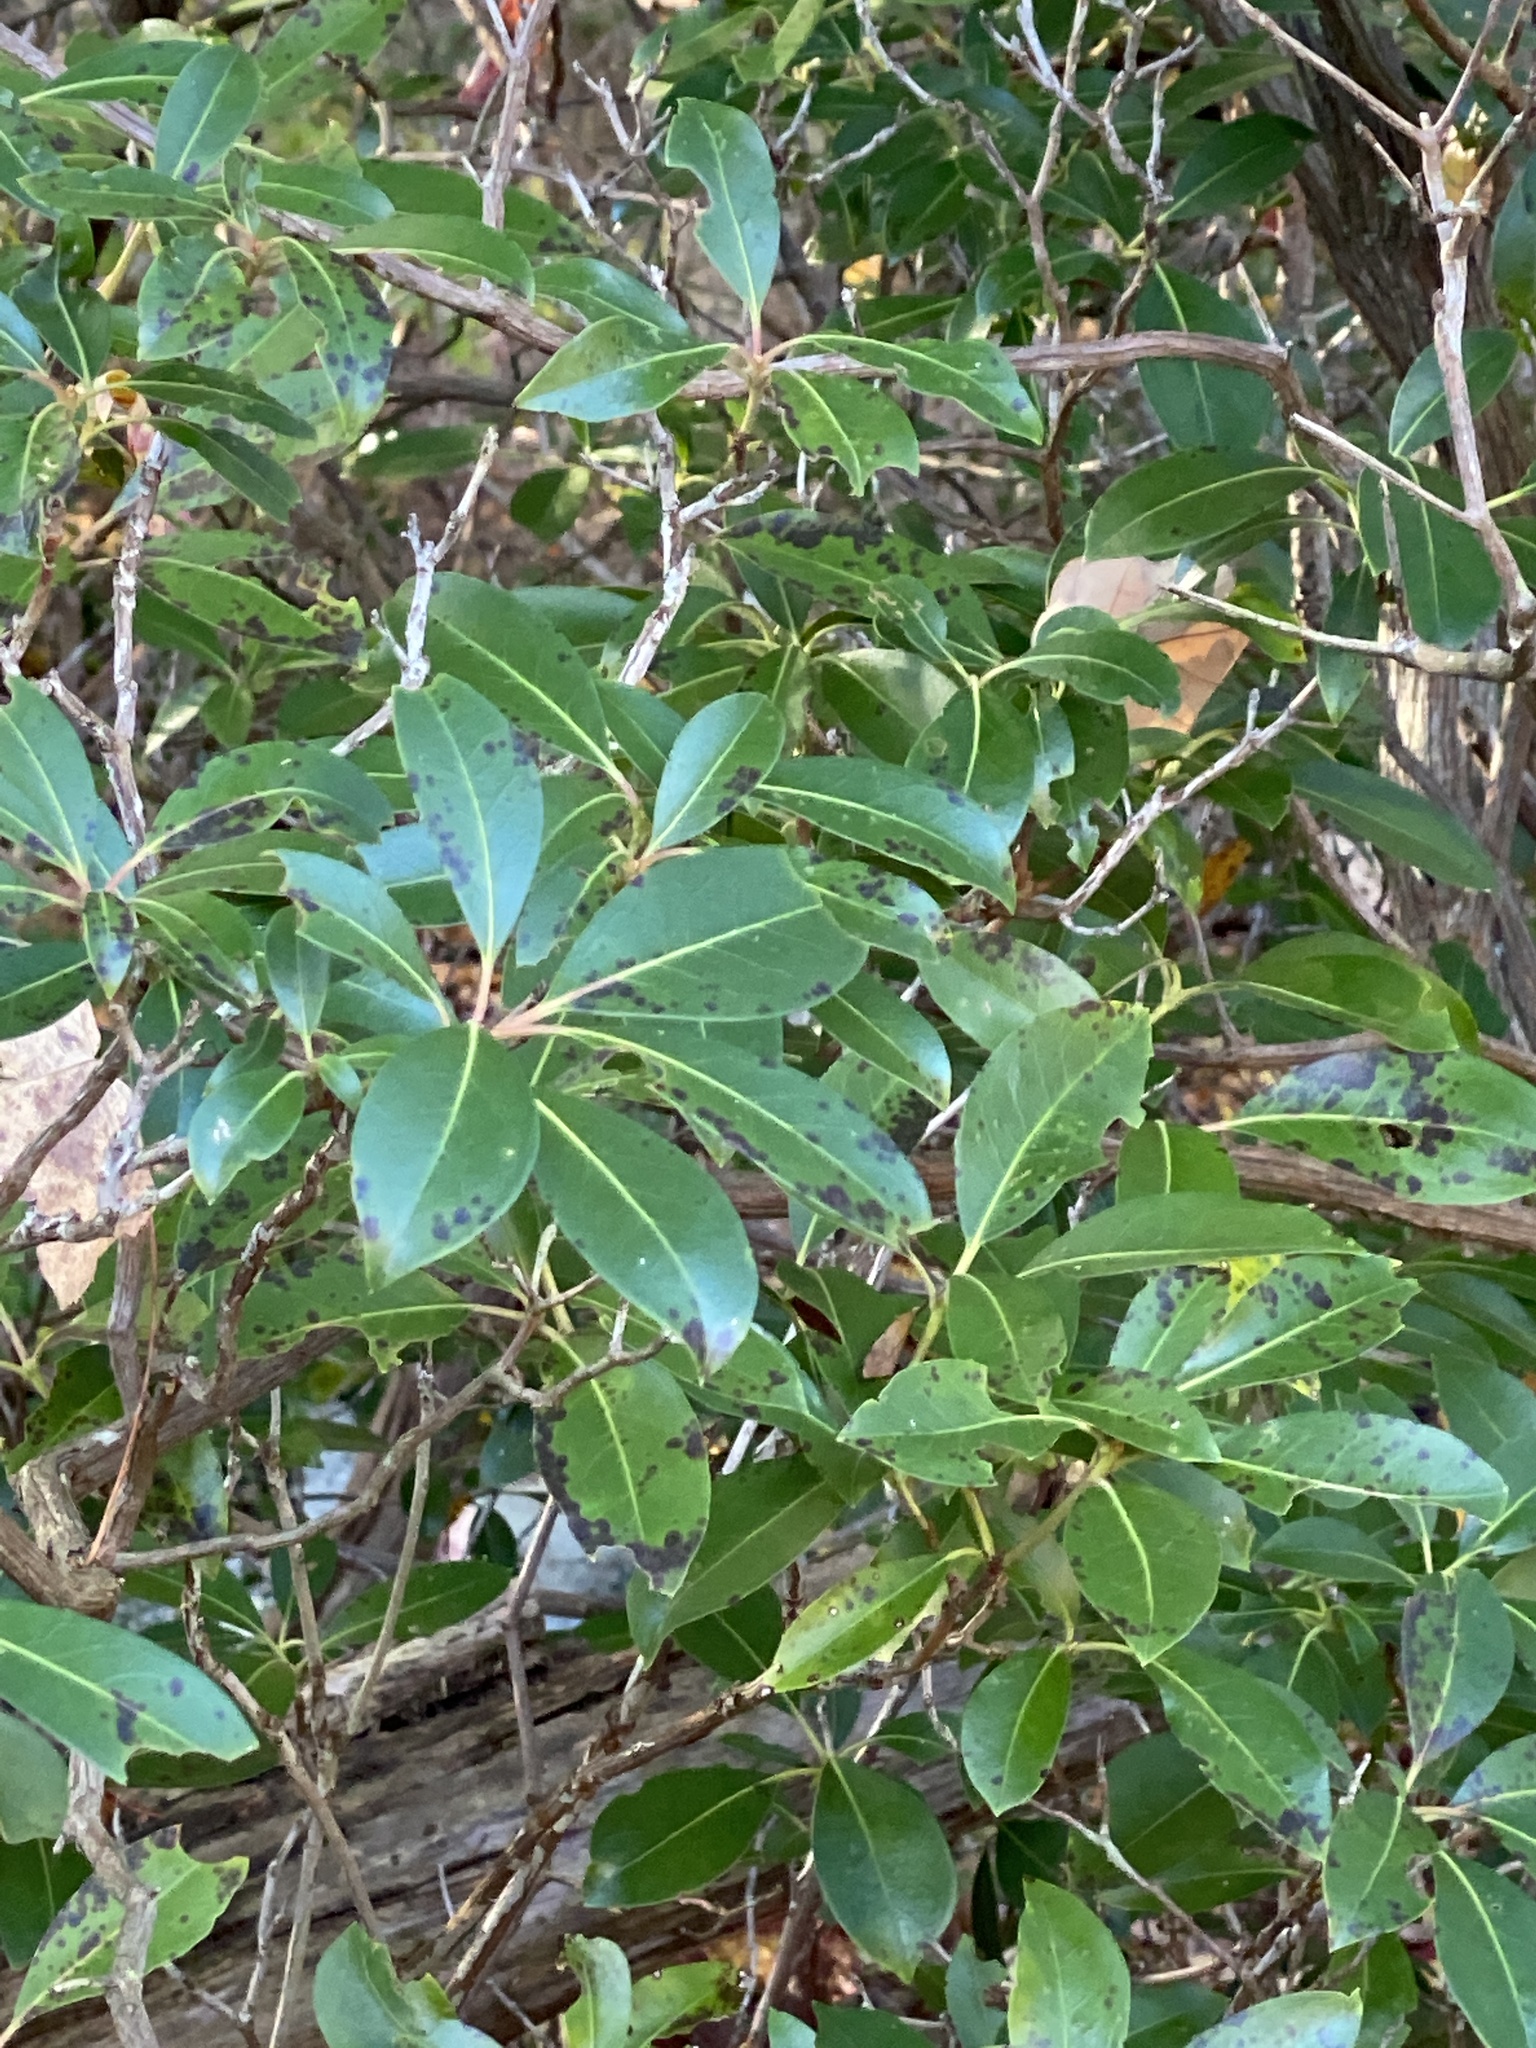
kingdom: Plantae
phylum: Tracheophyta
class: Magnoliopsida
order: Ericales
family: Ericaceae
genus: Kalmia
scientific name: Kalmia latifolia
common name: Mountain-laurel
